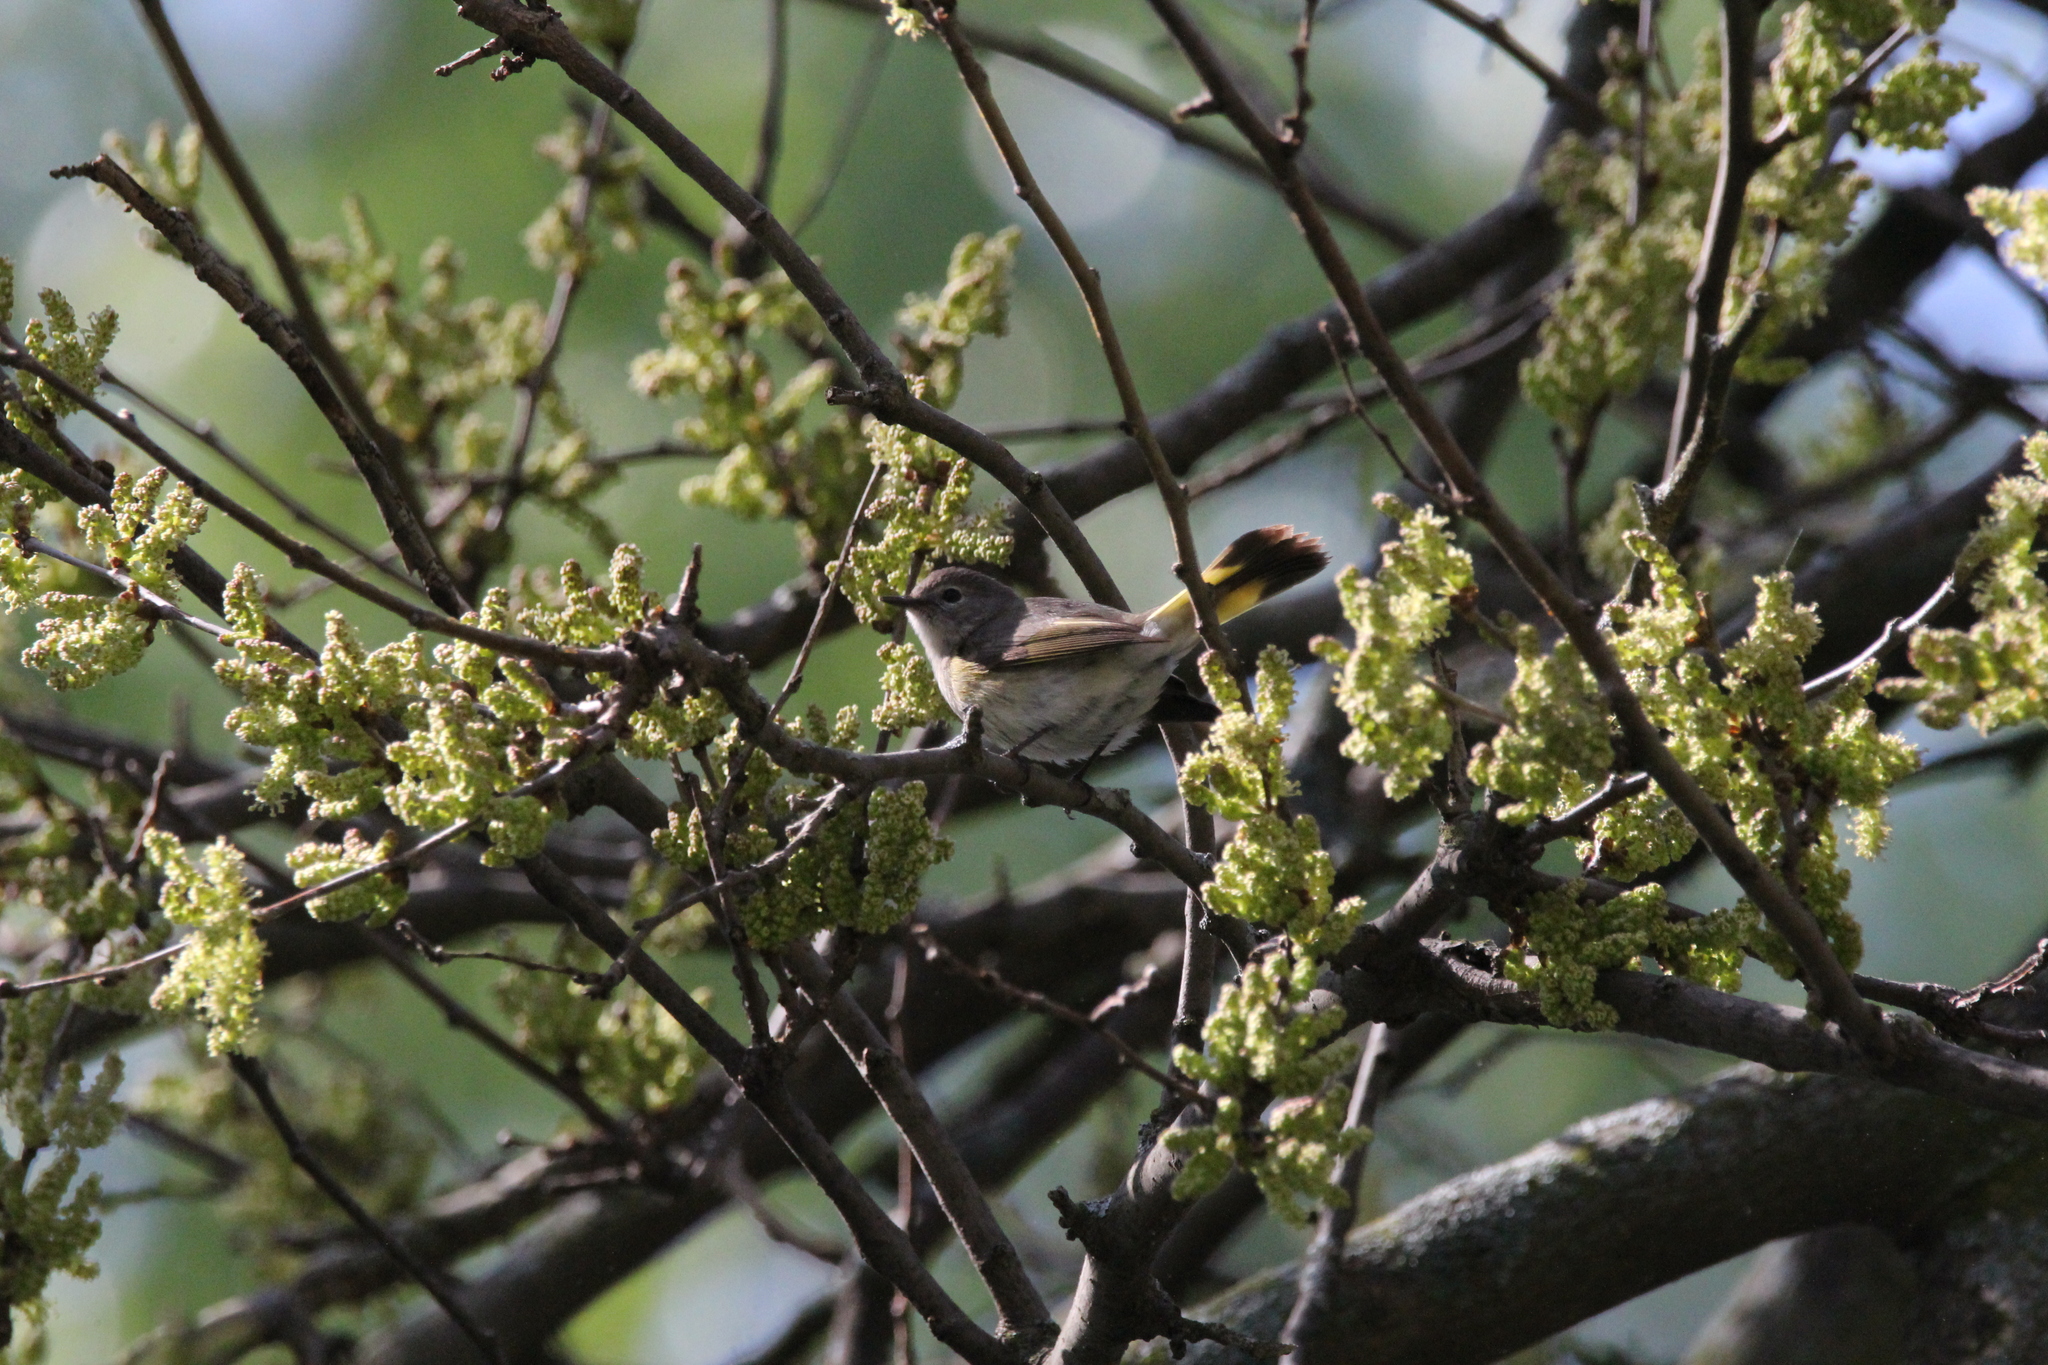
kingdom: Animalia
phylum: Chordata
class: Aves
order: Passeriformes
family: Parulidae
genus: Setophaga
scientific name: Setophaga ruticilla
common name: American redstart
